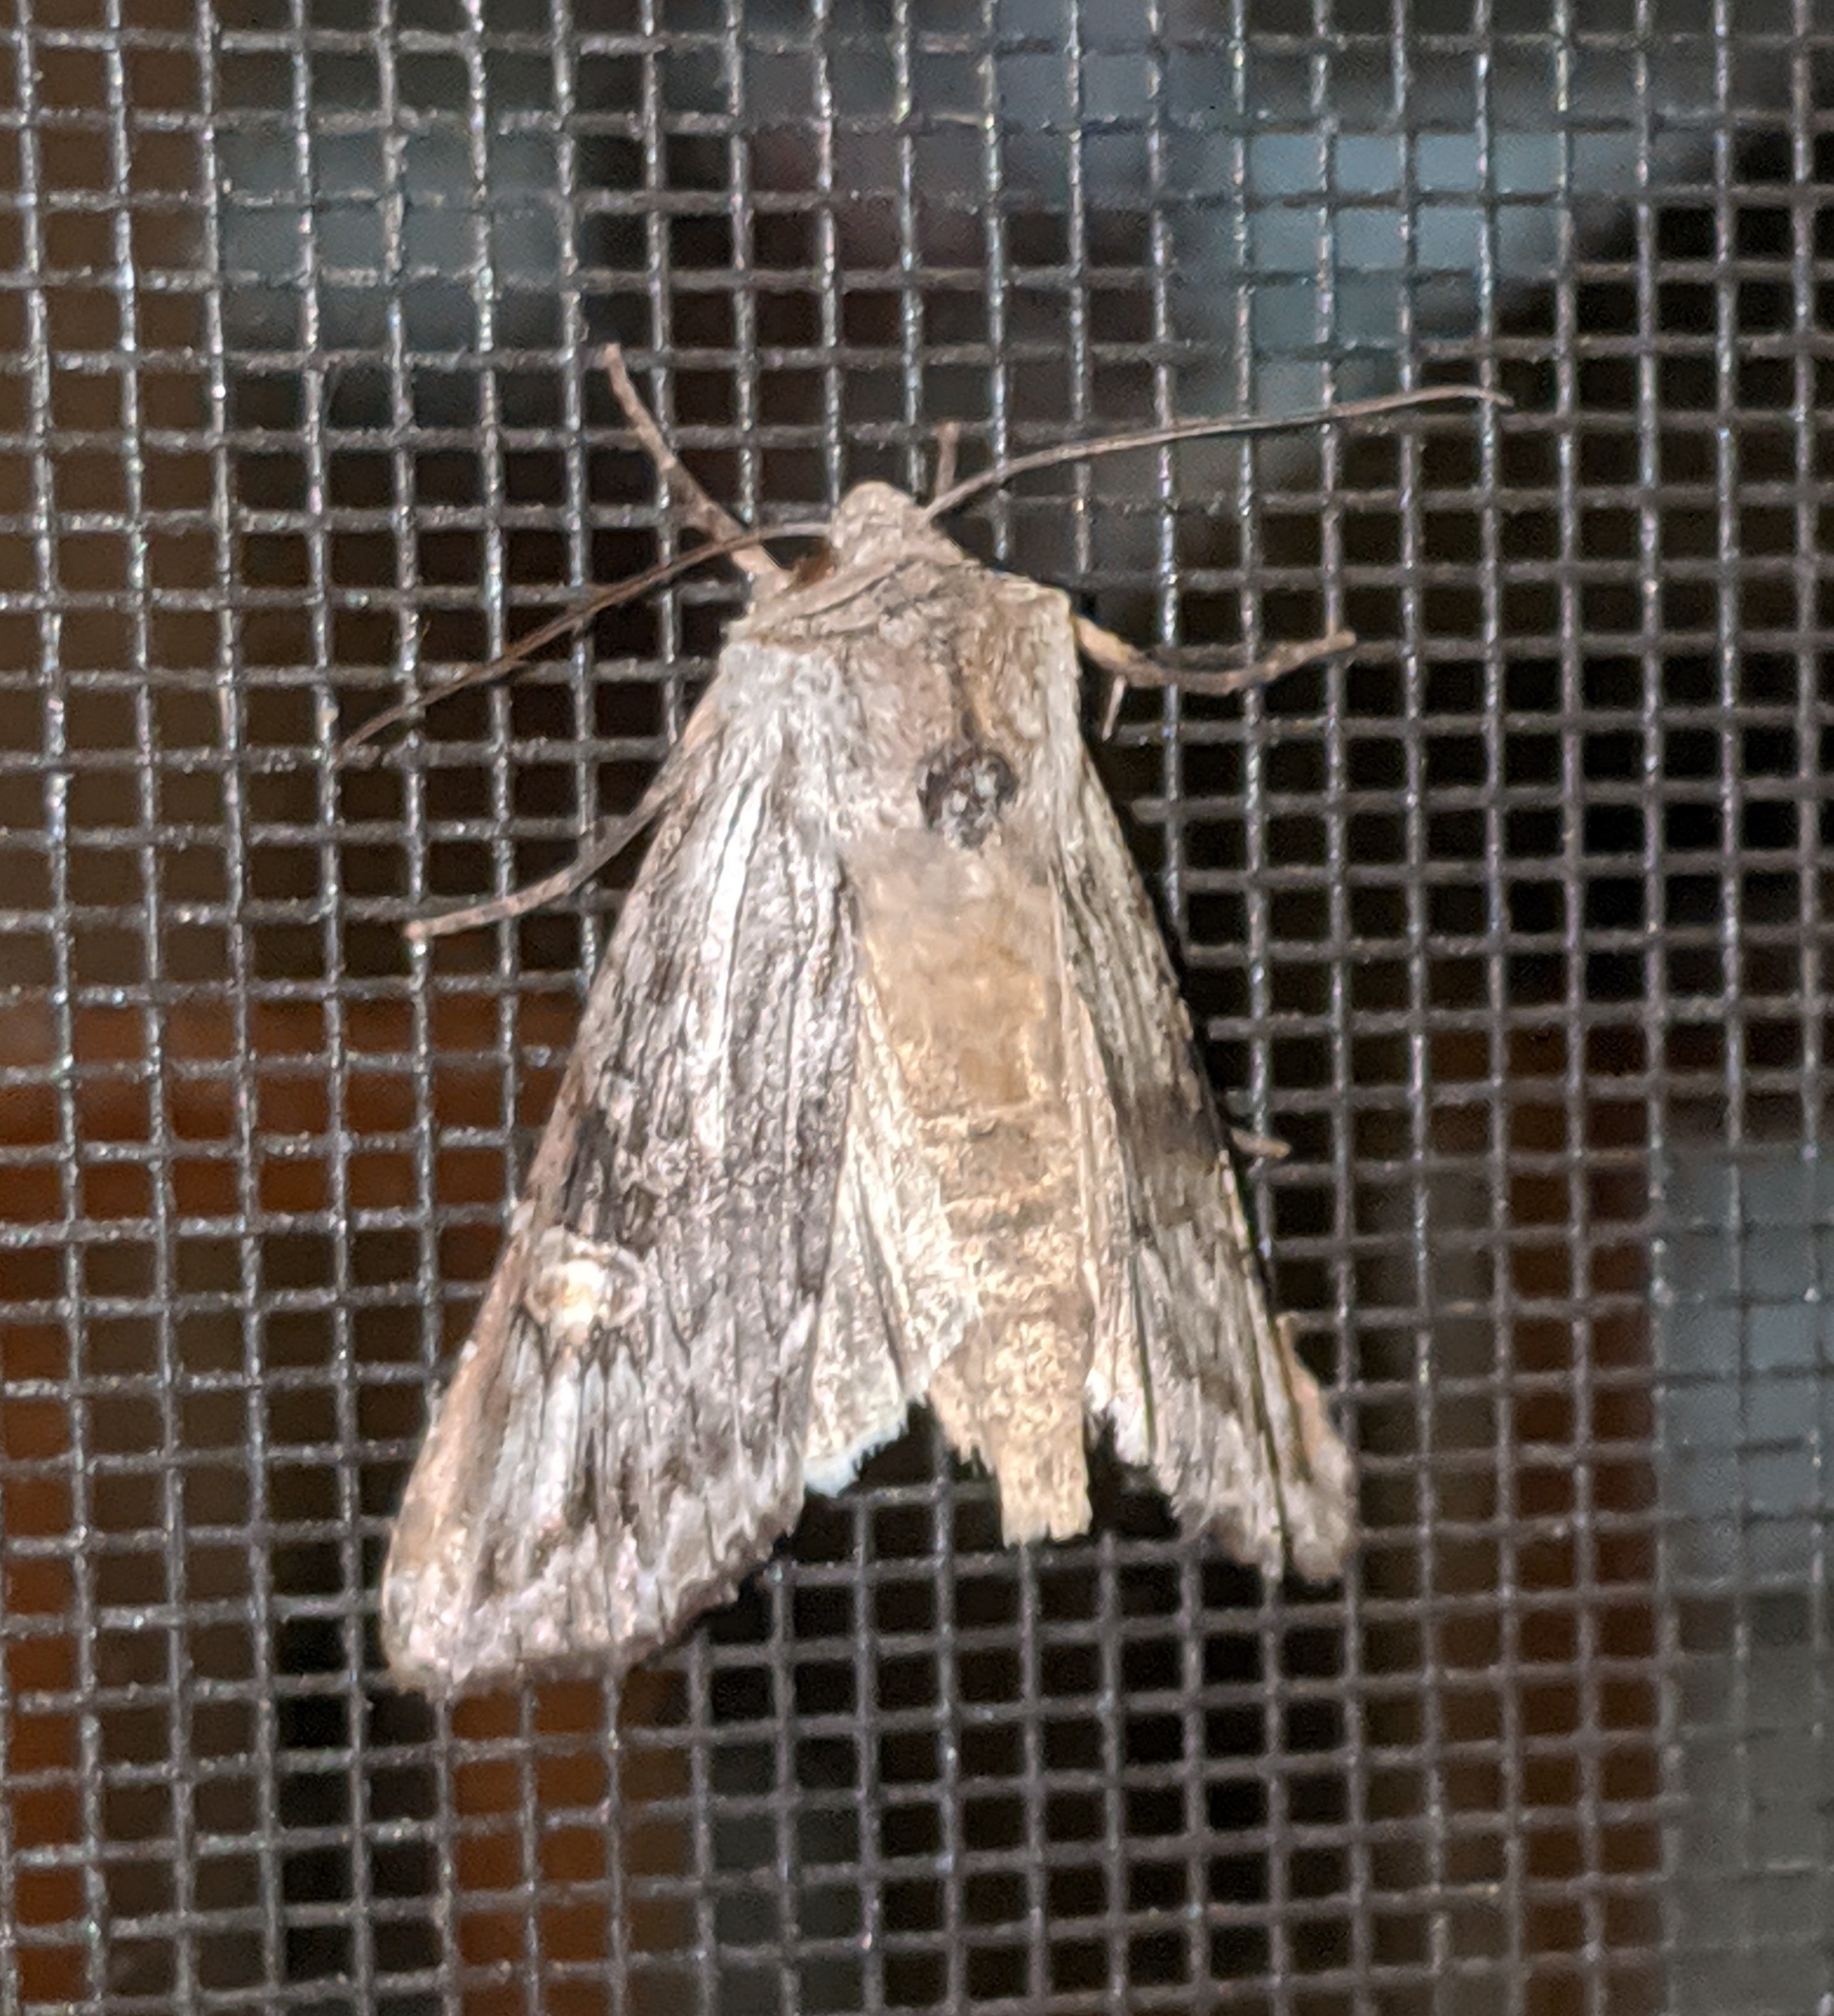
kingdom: Animalia
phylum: Arthropoda
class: Insecta
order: Lepidoptera
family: Noctuidae
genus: Xylena
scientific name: Xylena germana
